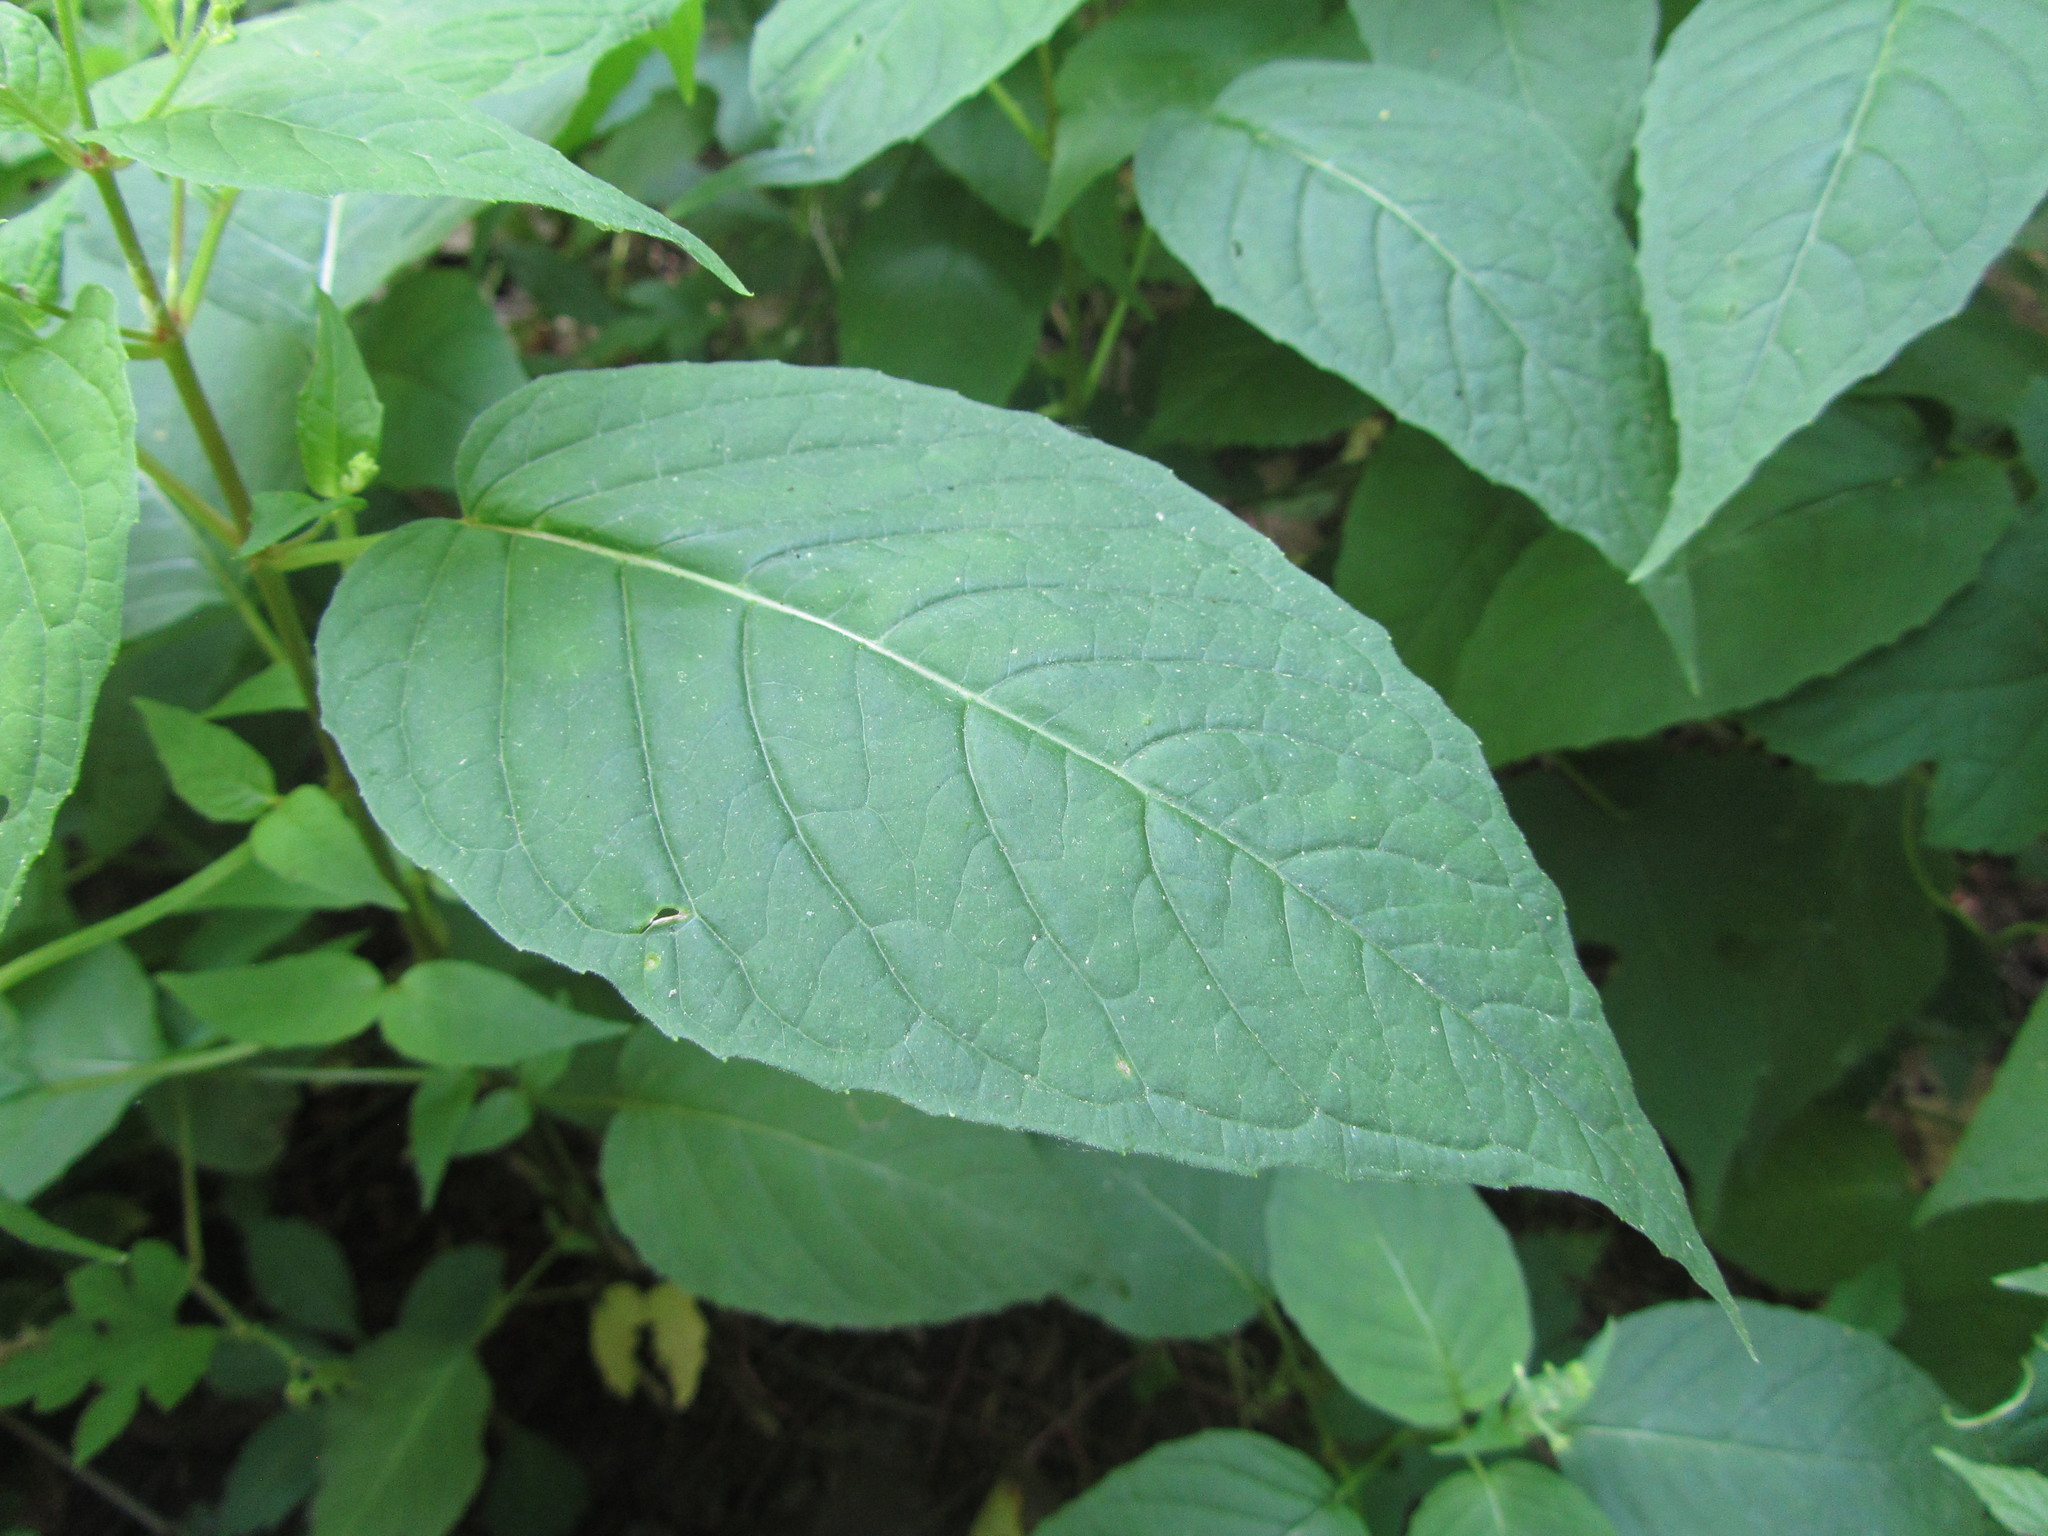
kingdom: Plantae
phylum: Tracheophyta
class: Magnoliopsida
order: Myrtales
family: Onagraceae
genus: Circaea
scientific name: Circaea canadensis
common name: Broad-leaved enchanter's nightshade
